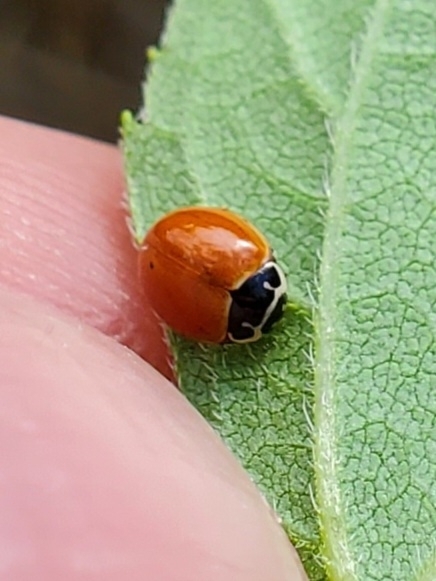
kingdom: Animalia
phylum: Arthropoda
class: Insecta
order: Coleoptera
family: Coccinellidae
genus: Cycloneda
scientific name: Cycloneda munda
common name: Polished lady beetle
